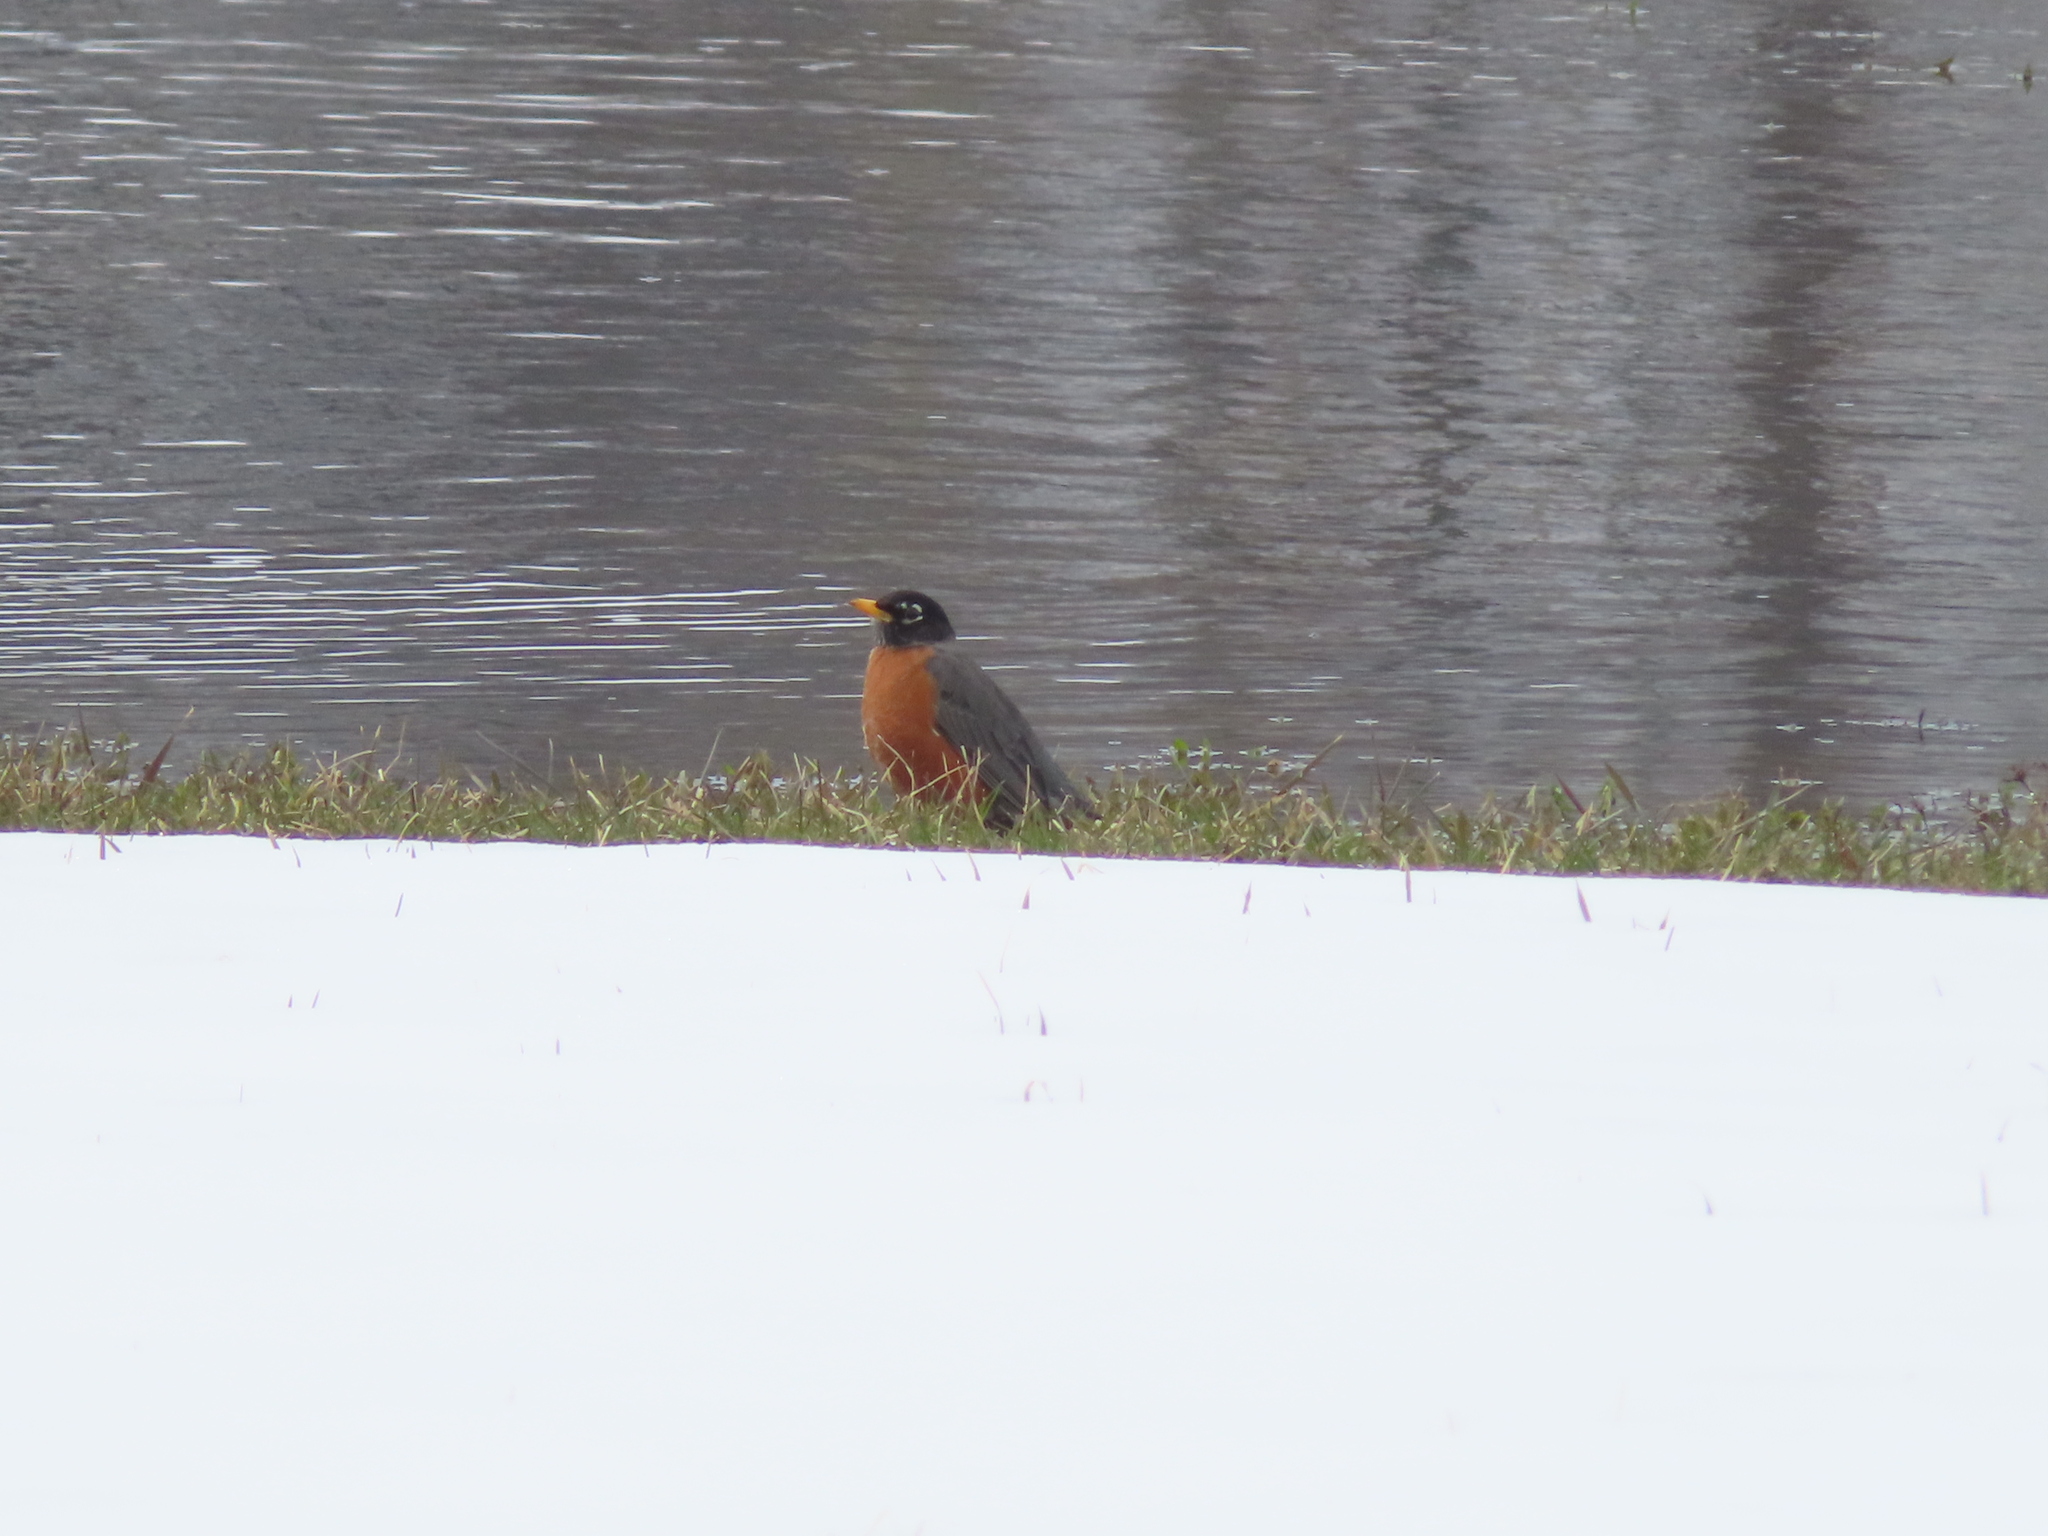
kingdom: Animalia
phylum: Chordata
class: Aves
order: Passeriformes
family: Turdidae
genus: Turdus
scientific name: Turdus migratorius
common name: American robin
